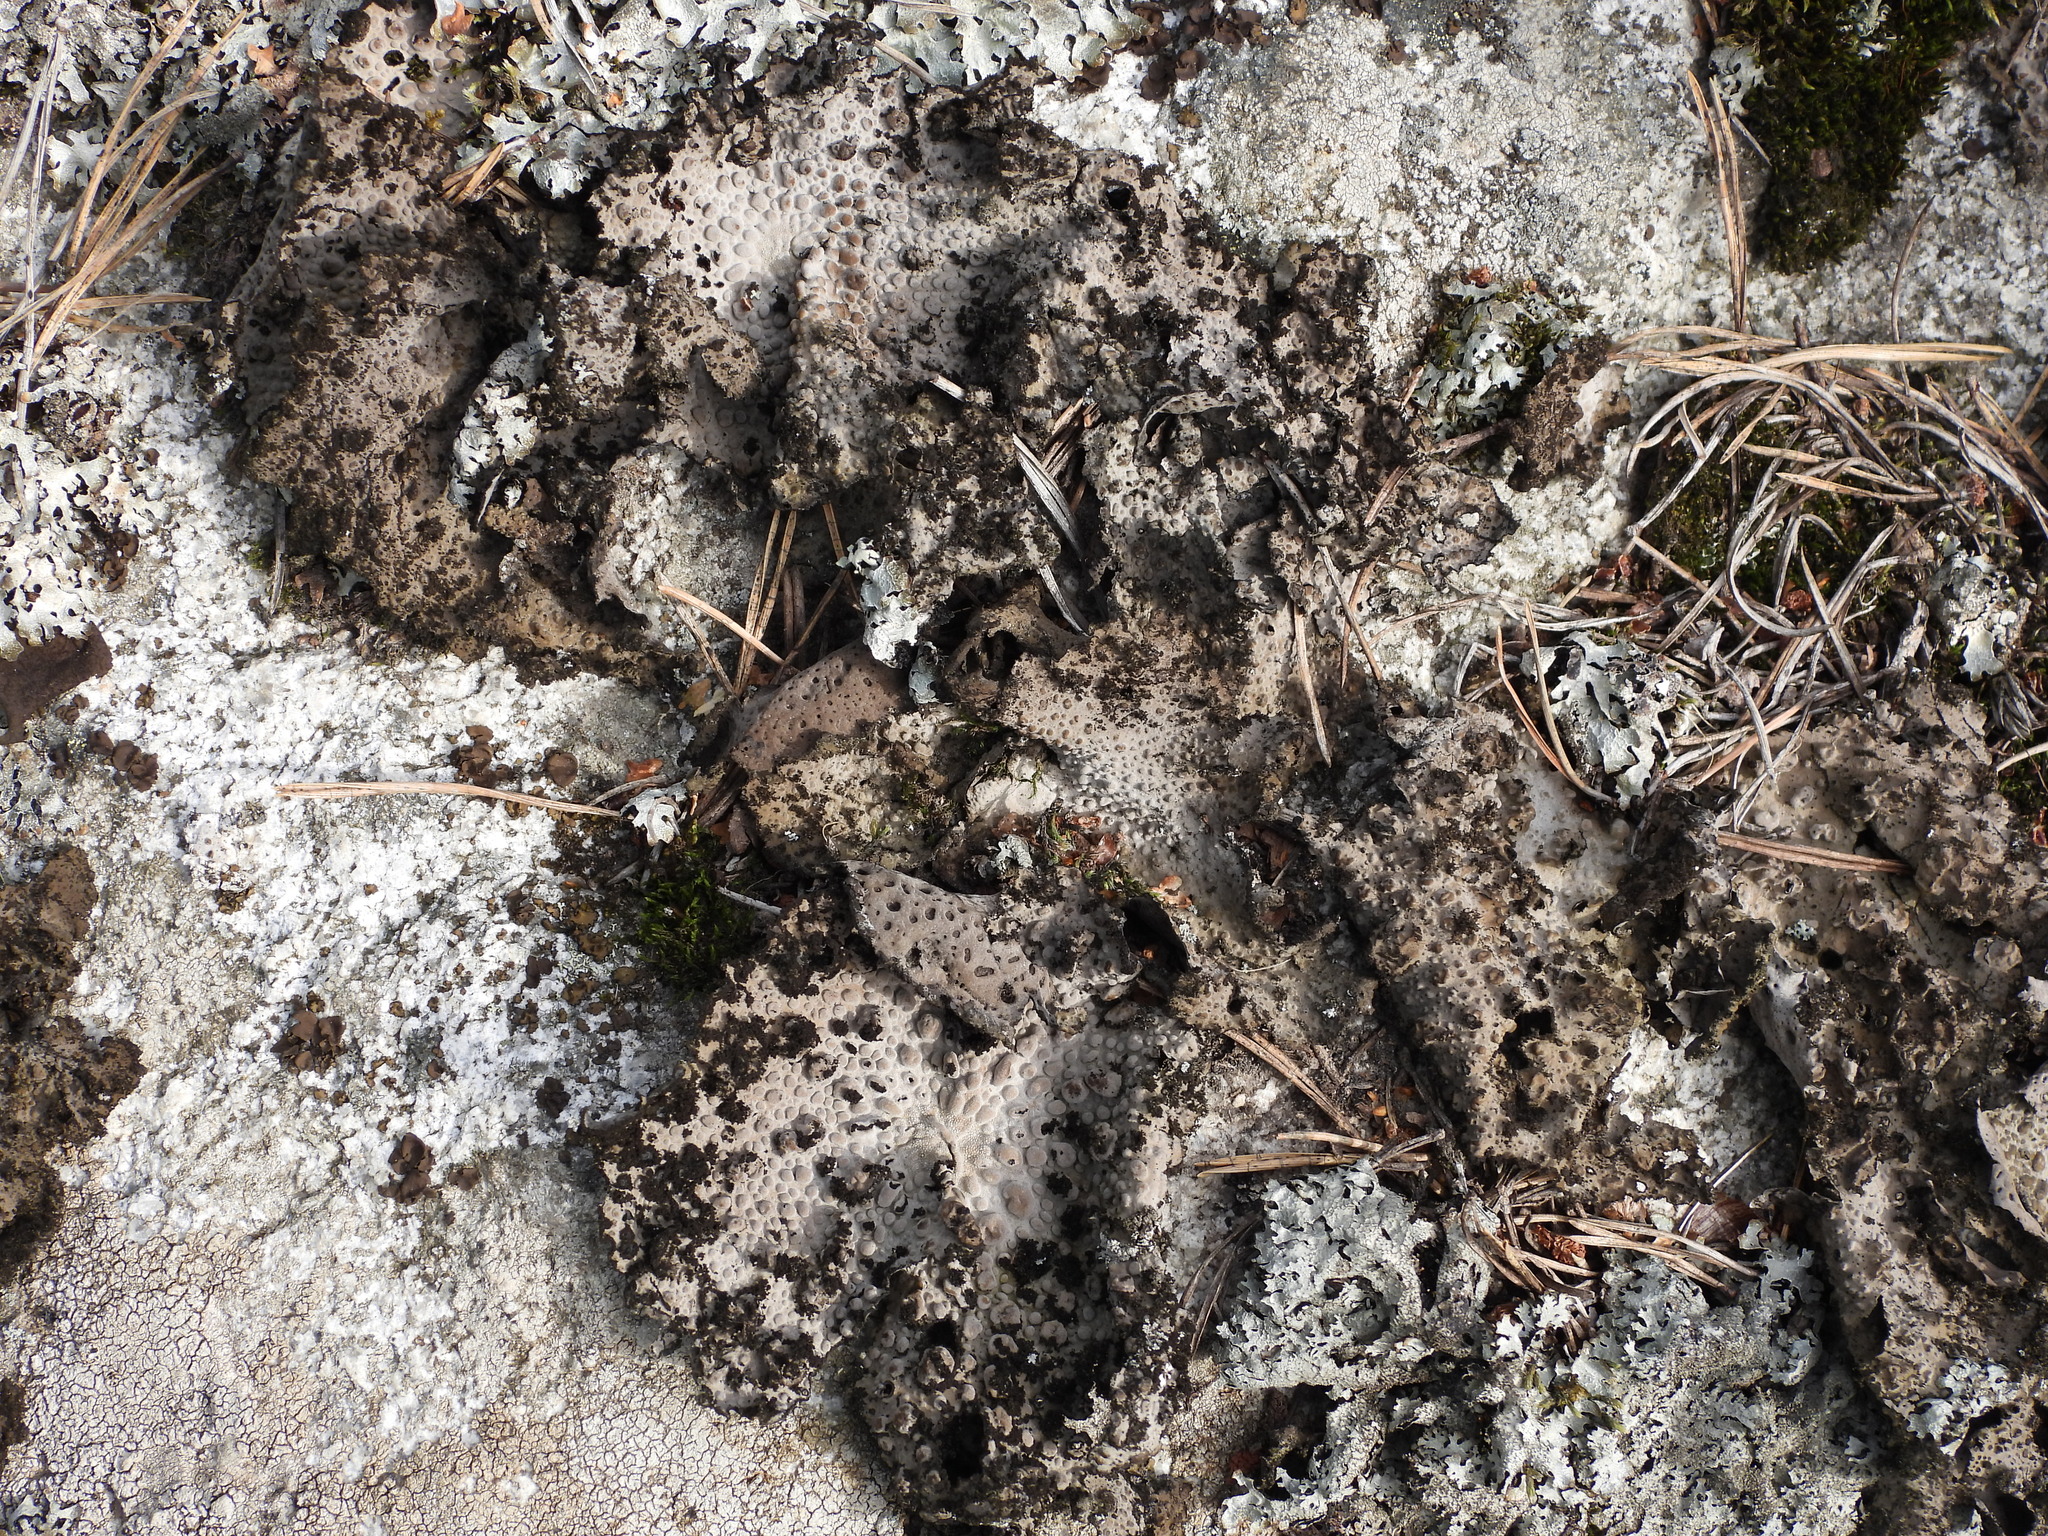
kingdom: Fungi
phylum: Ascomycota
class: Lecanoromycetes
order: Umbilicariales
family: Umbilicariaceae
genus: Lasallia
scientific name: Lasallia pustulata
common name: Blistered toadskin lichen
